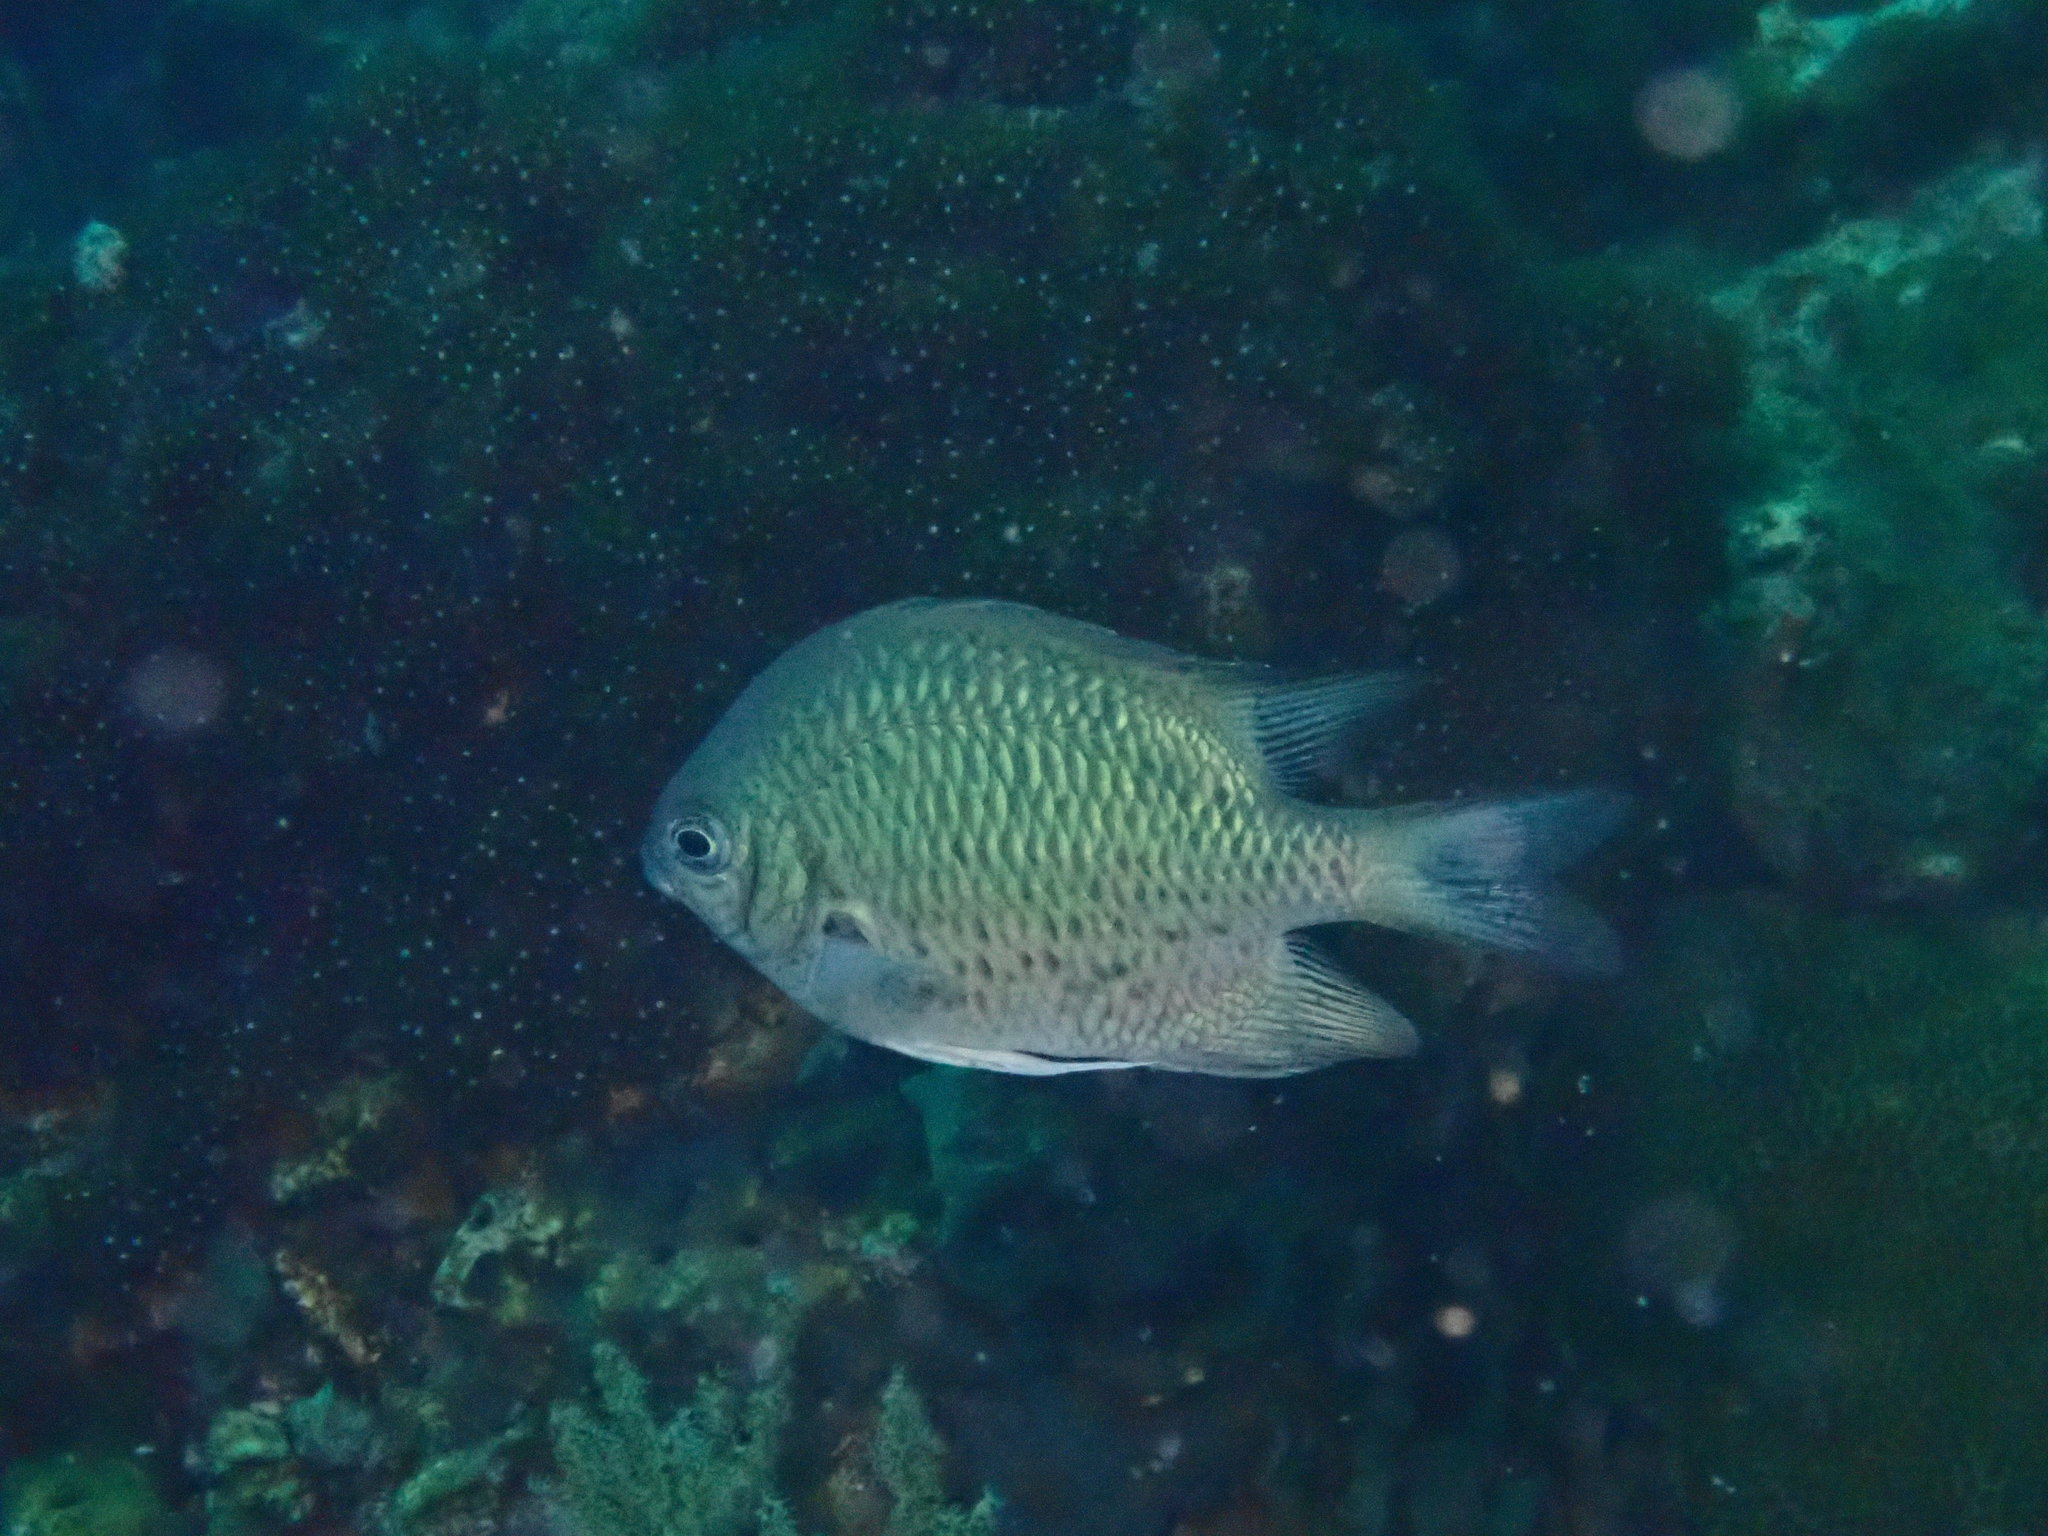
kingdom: Animalia
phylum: Chordata
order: Perciformes
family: Pomacentridae
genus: Amblyglyphidodon
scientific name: Amblyglyphidodon indicus
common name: Maldives damselfish
